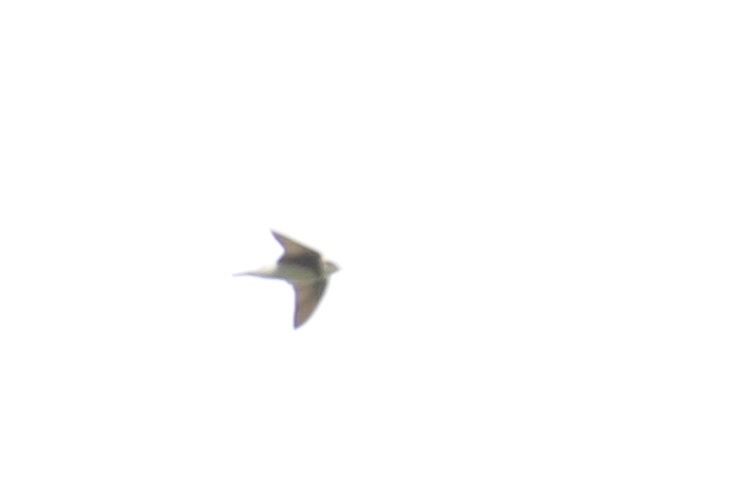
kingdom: Animalia
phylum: Chordata
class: Aves
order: Passeriformes
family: Hirundinidae
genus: Riparia
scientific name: Riparia riparia
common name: Sand martin
